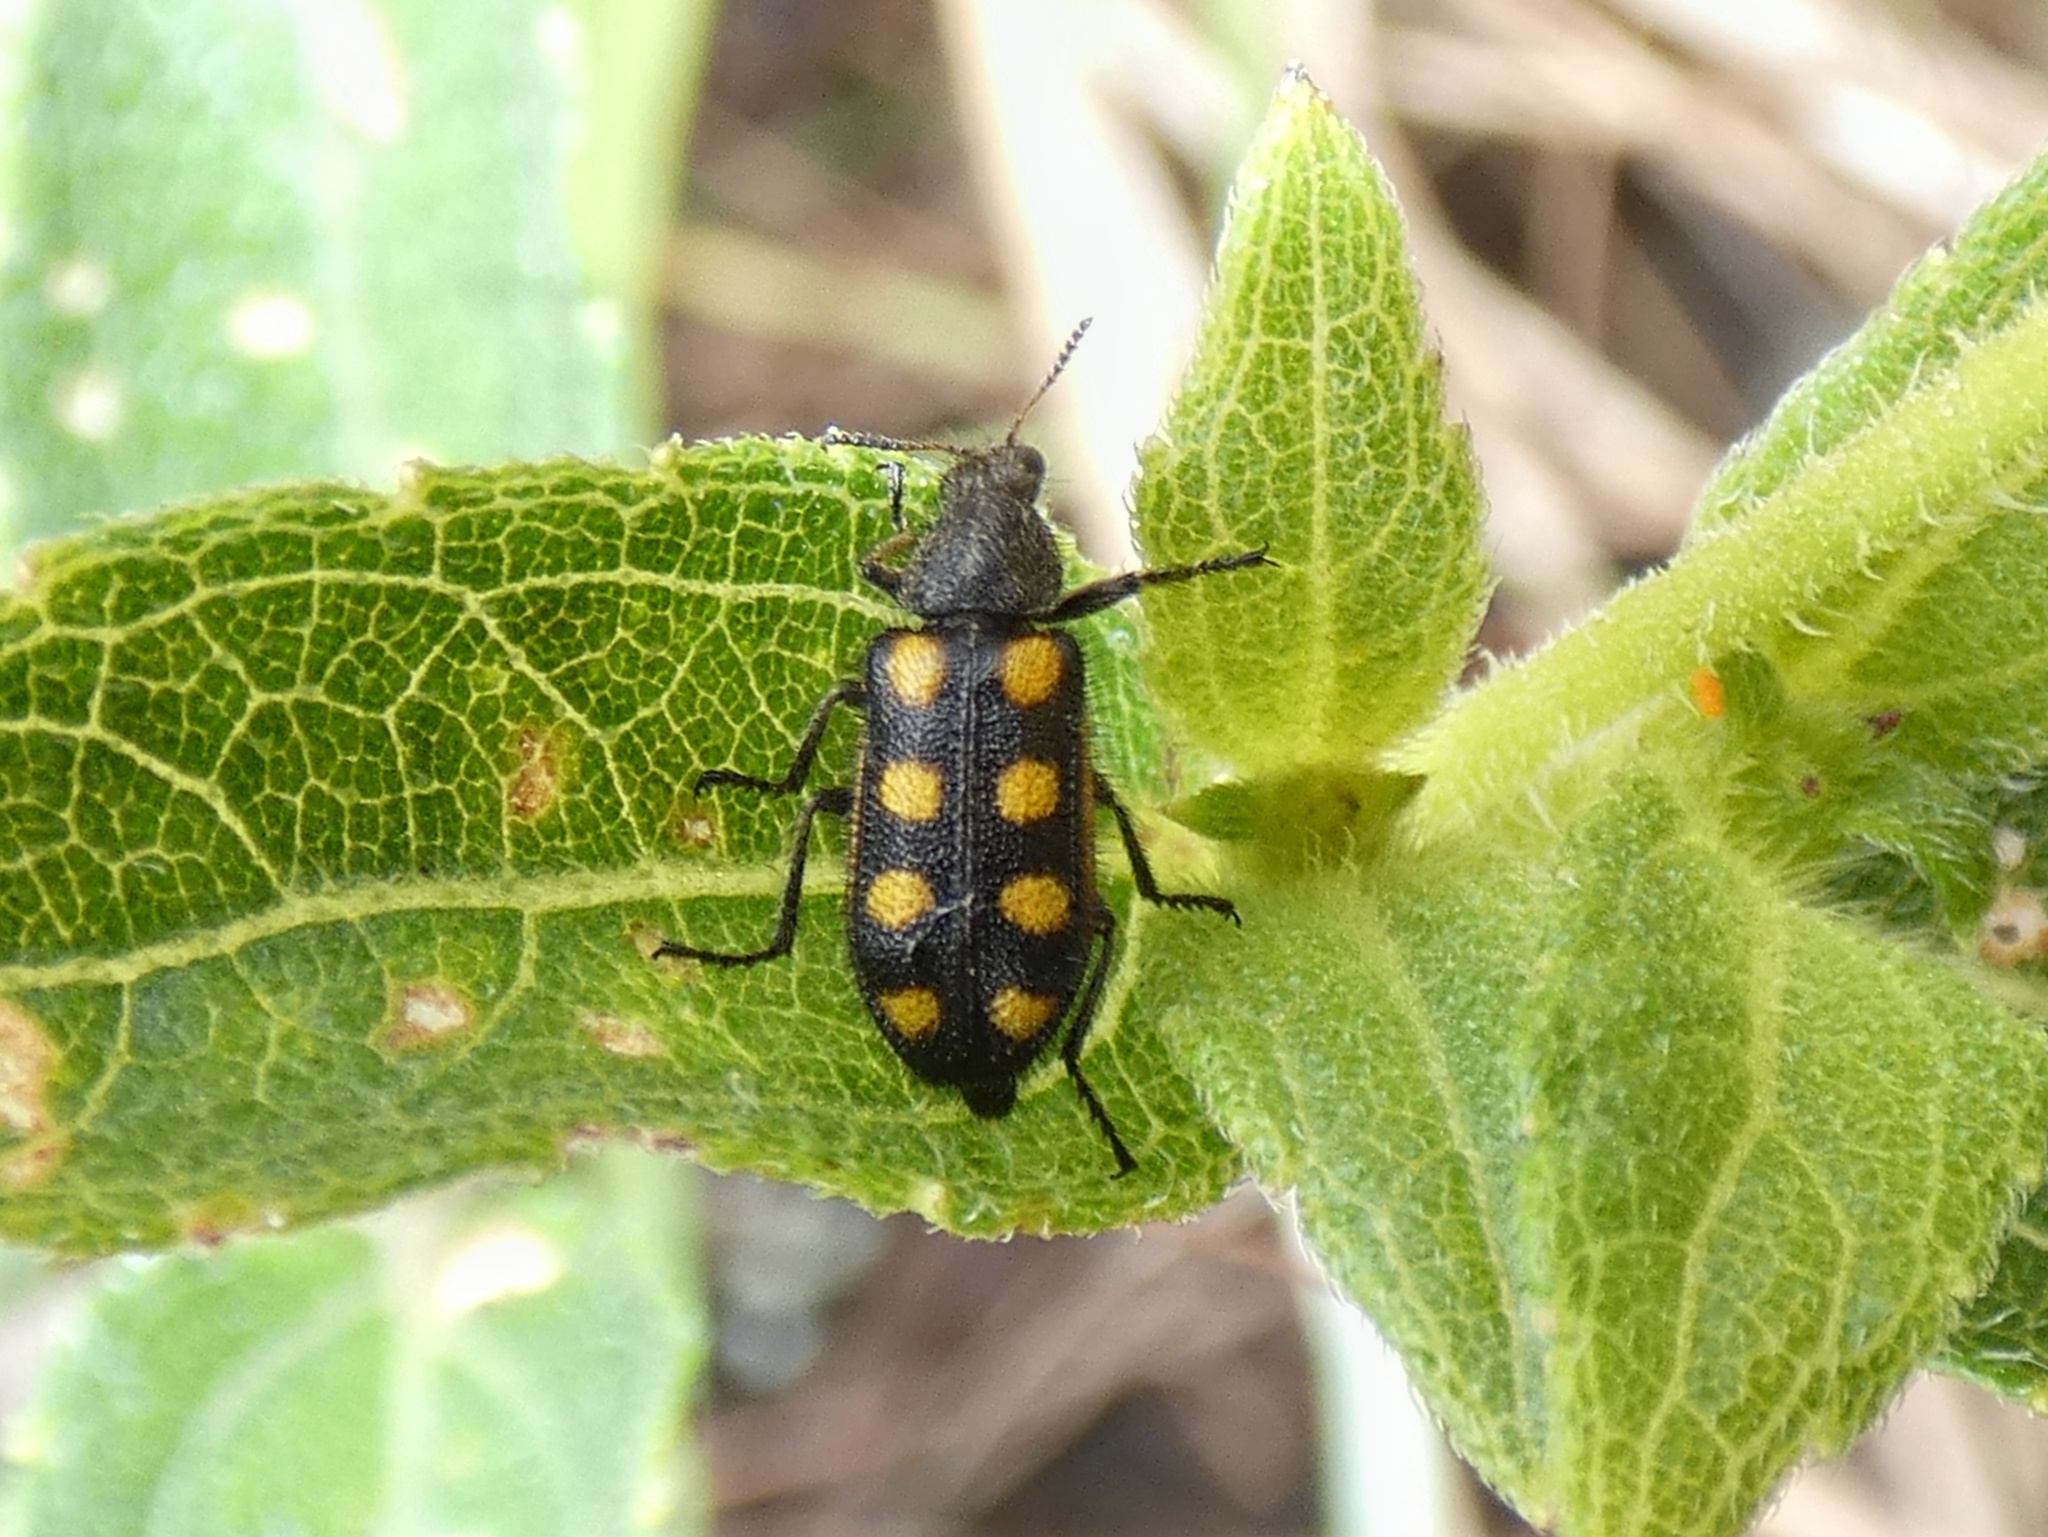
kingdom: Animalia
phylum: Arthropoda
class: Insecta
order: Coleoptera
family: Melyridae
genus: Astylus
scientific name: Astylus
